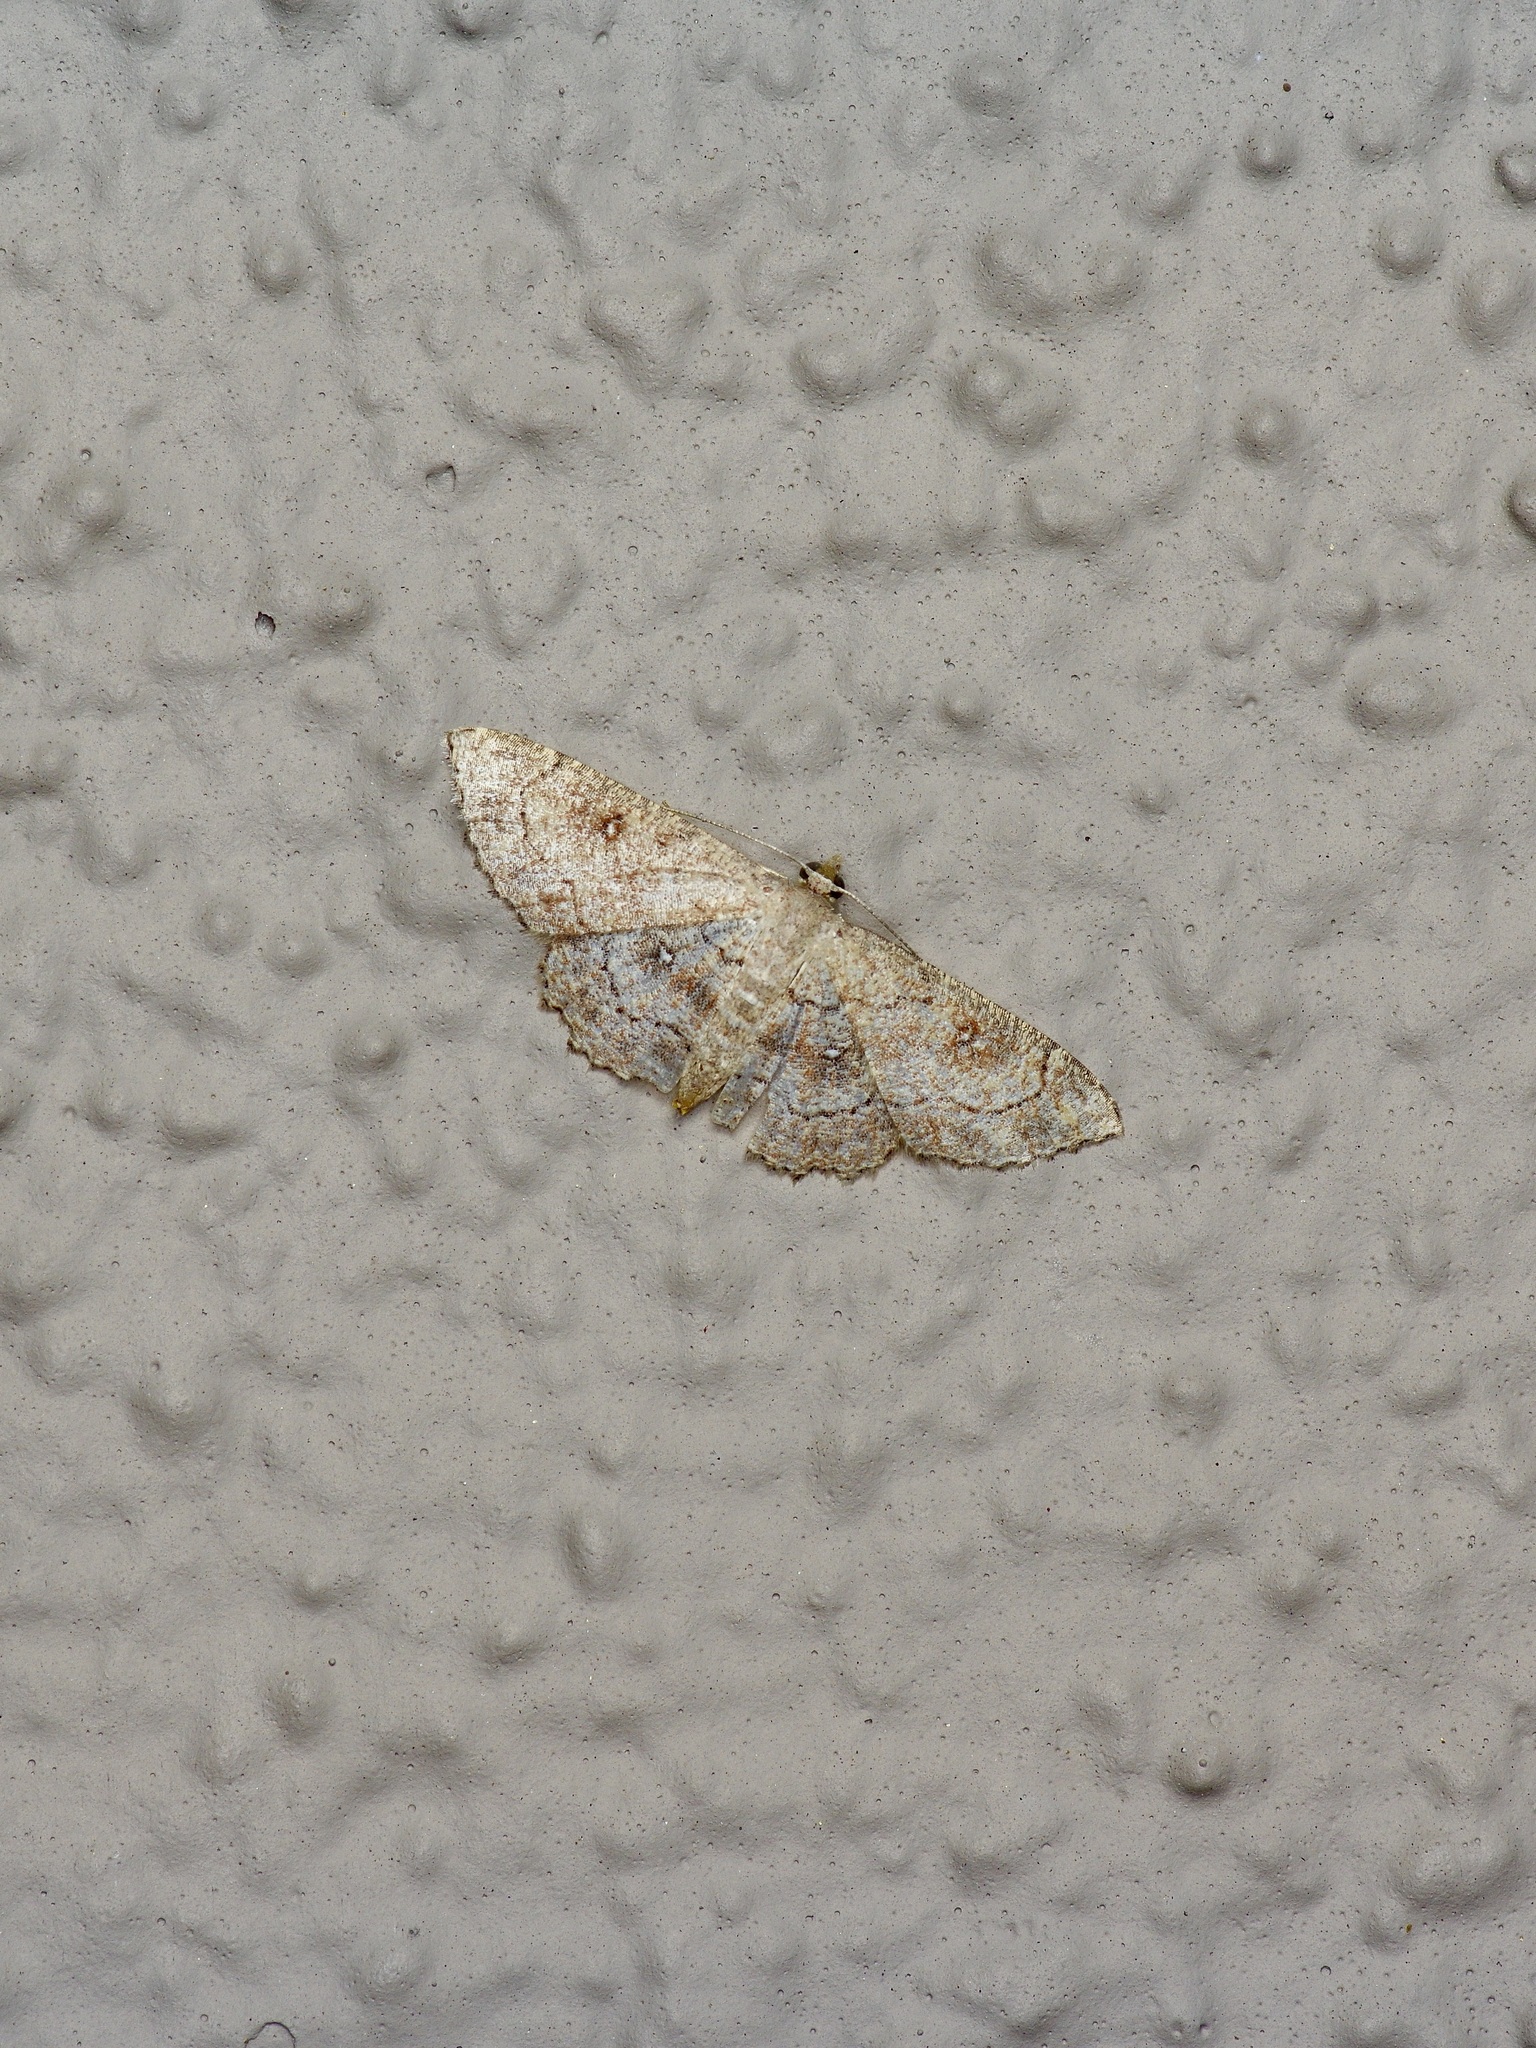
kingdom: Animalia
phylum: Arthropoda
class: Insecta
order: Lepidoptera
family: Geometridae
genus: Cyclophora
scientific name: Cyclophora nanaria
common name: Cankerworm
